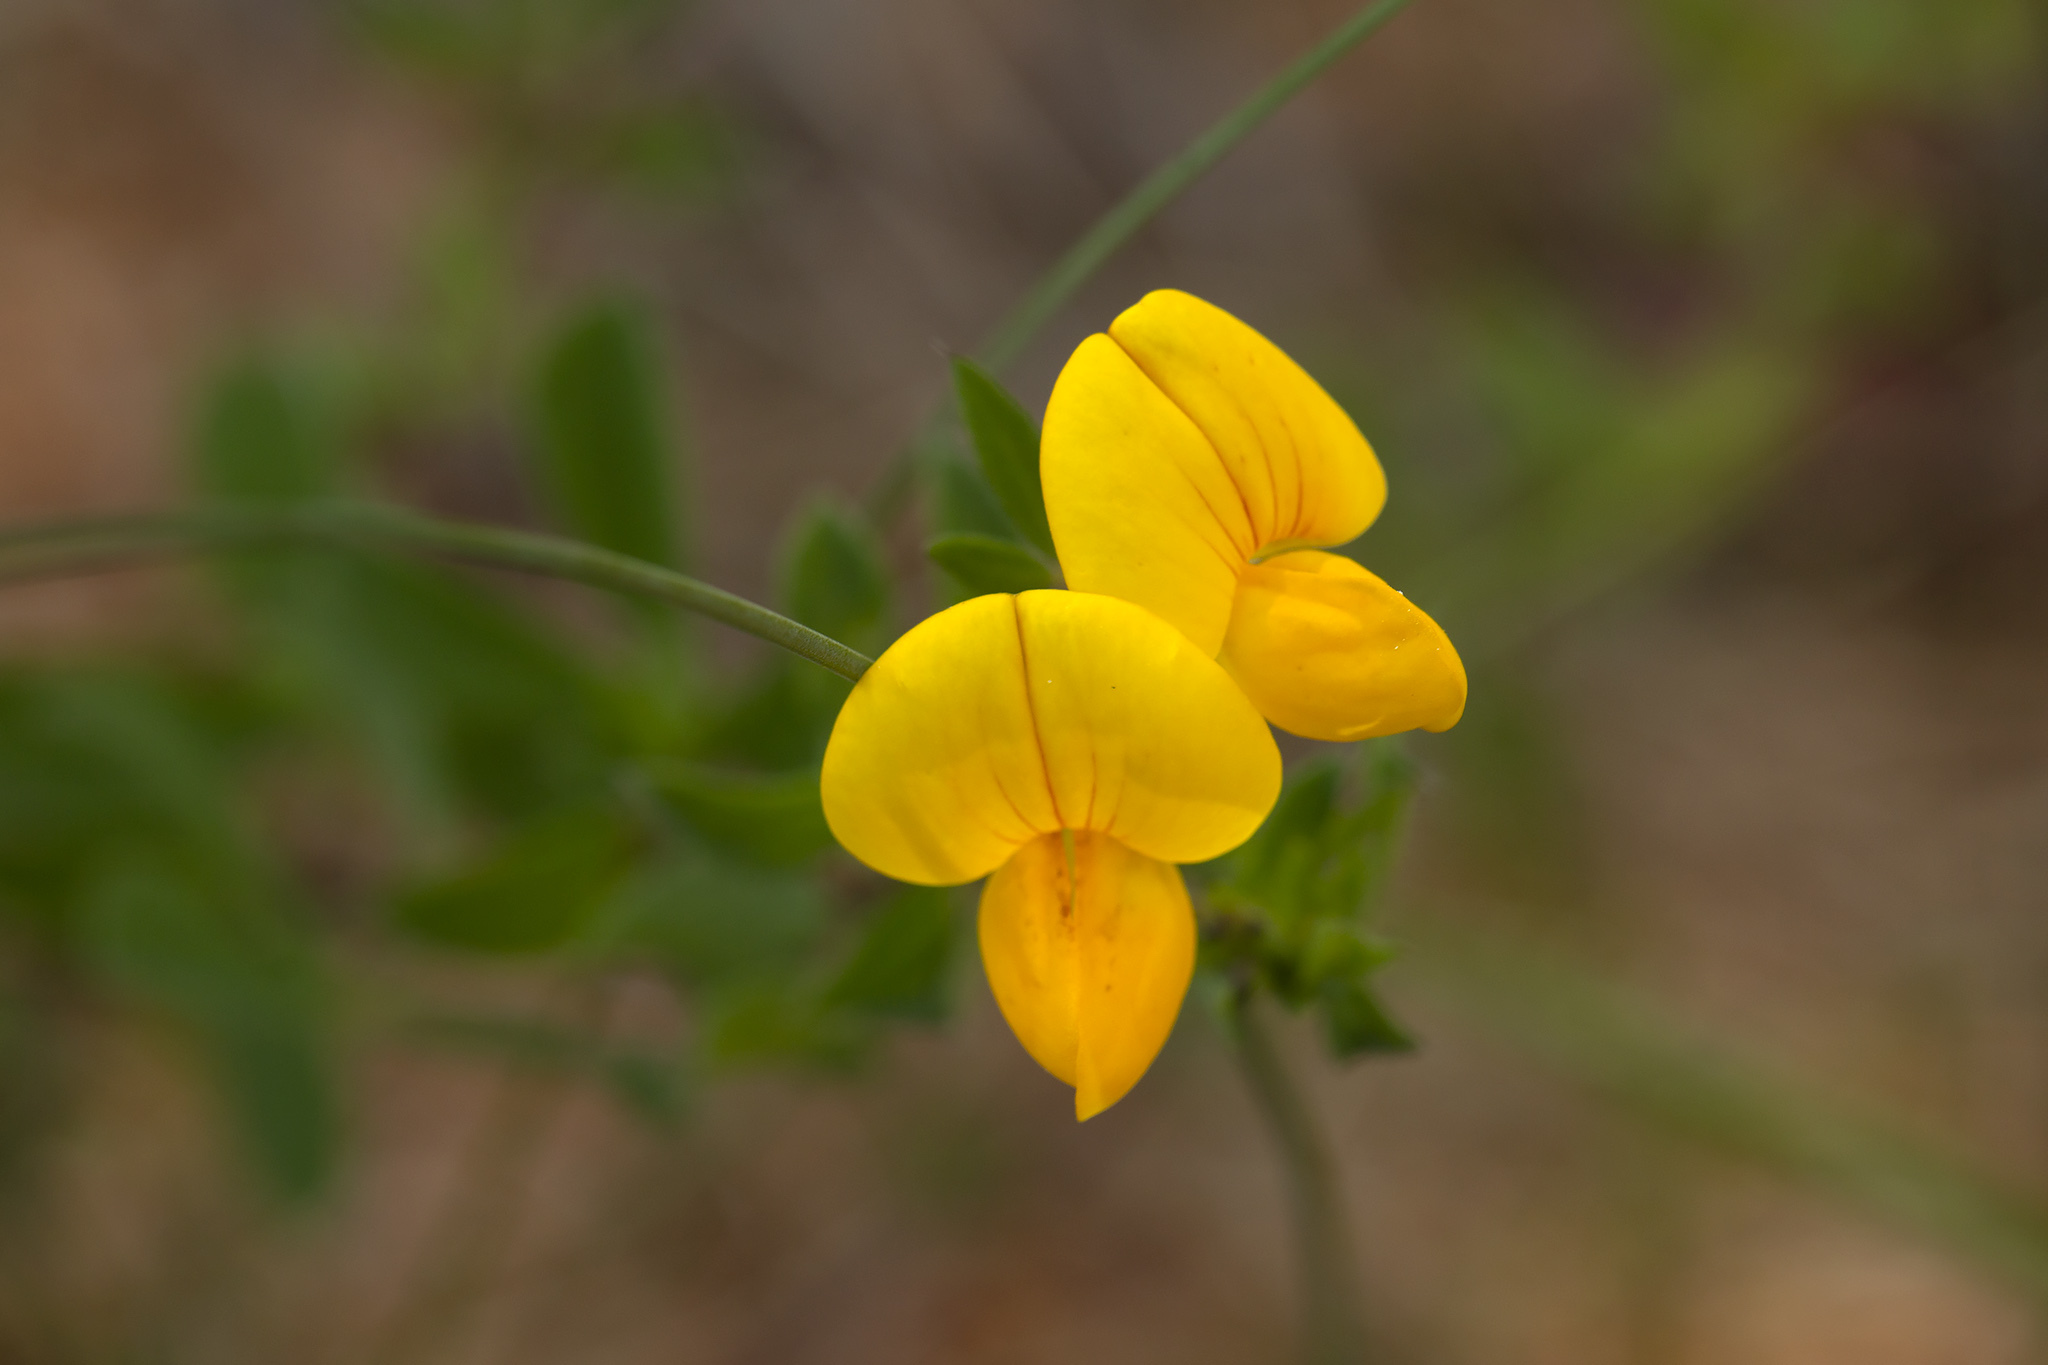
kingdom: Plantae
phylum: Tracheophyta
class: Magnoliopsida
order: Fabales
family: Fabaceae
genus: Lotus
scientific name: Lotus corniculatus
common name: Common bird's-foot-trefoil
